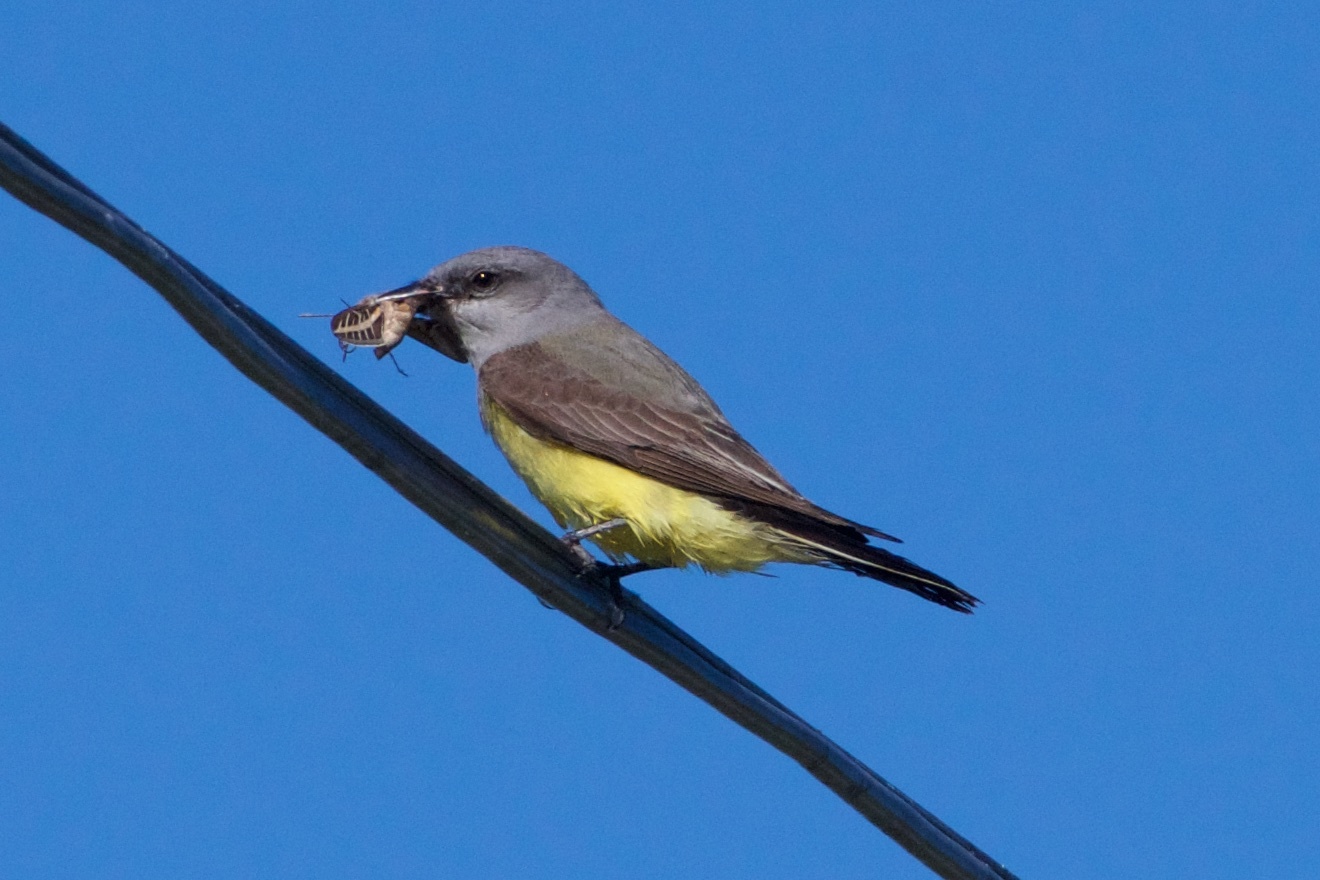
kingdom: Animalia
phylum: Chordata
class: Aves
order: Passeriformes
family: Tyrannidae
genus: Tyrannus
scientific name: Tyrannus verticalis
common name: Western kingbird
